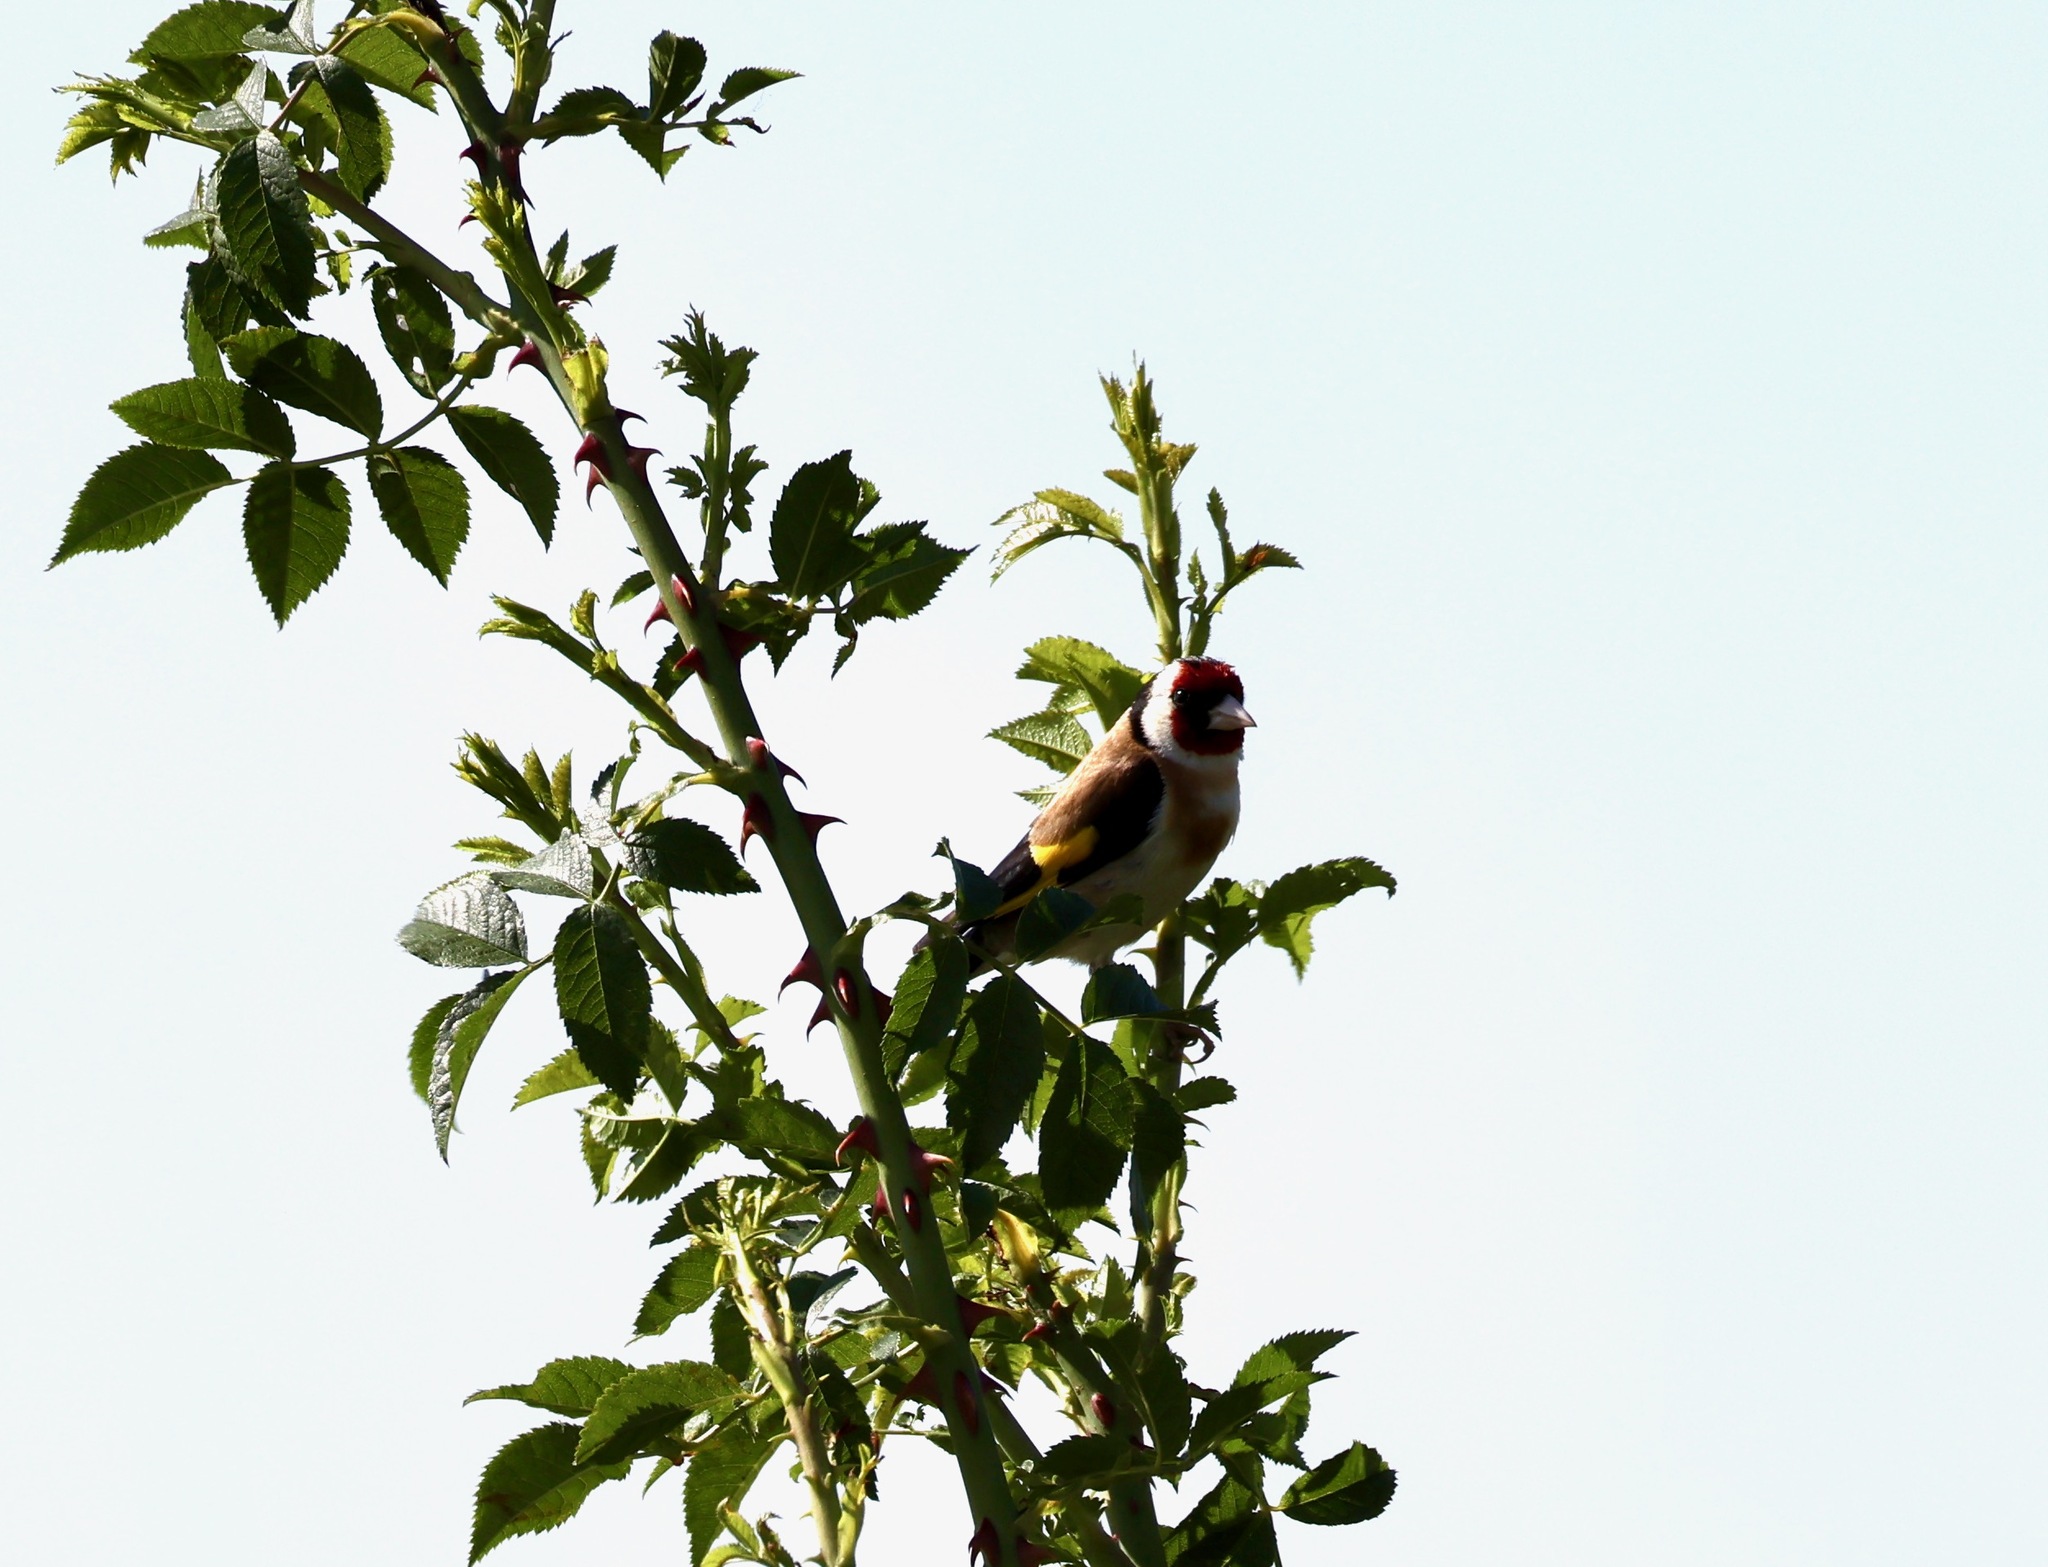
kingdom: Animalia
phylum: Chordata
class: Aves
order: Passeriformes
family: Fringillidae
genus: Carduelis
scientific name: Carduelis carduelis
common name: European goldfinch
